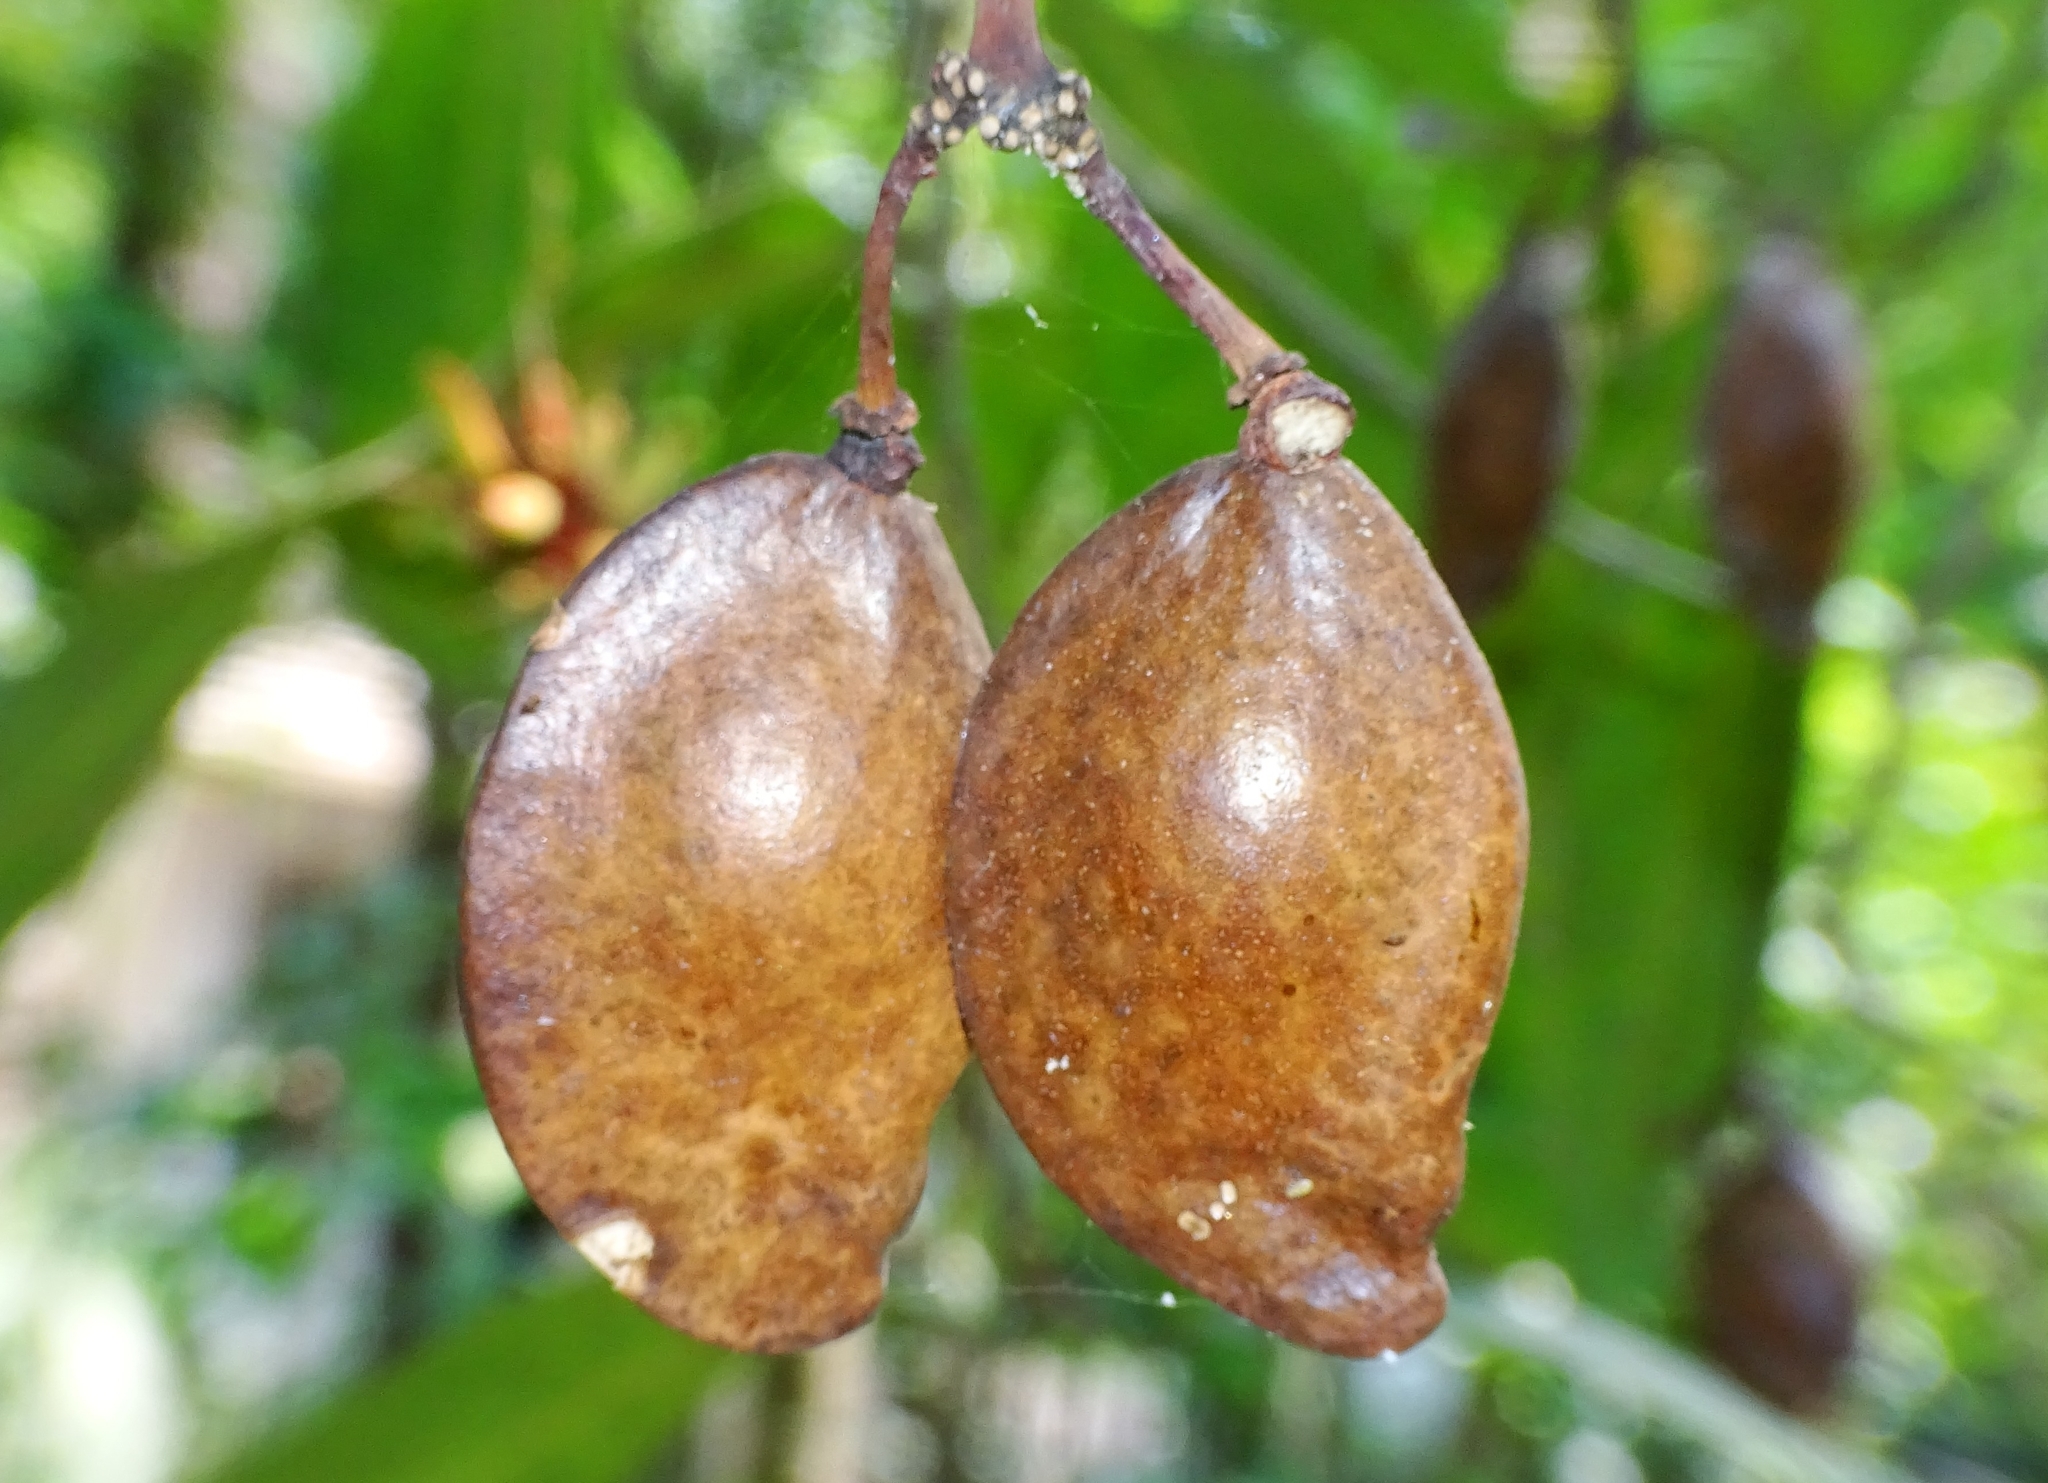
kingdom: Plantae
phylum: Tracheophyta
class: Magnoliopsida
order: Sapindales
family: Simaroubaceae
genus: Samadera
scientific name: Samadera indica
